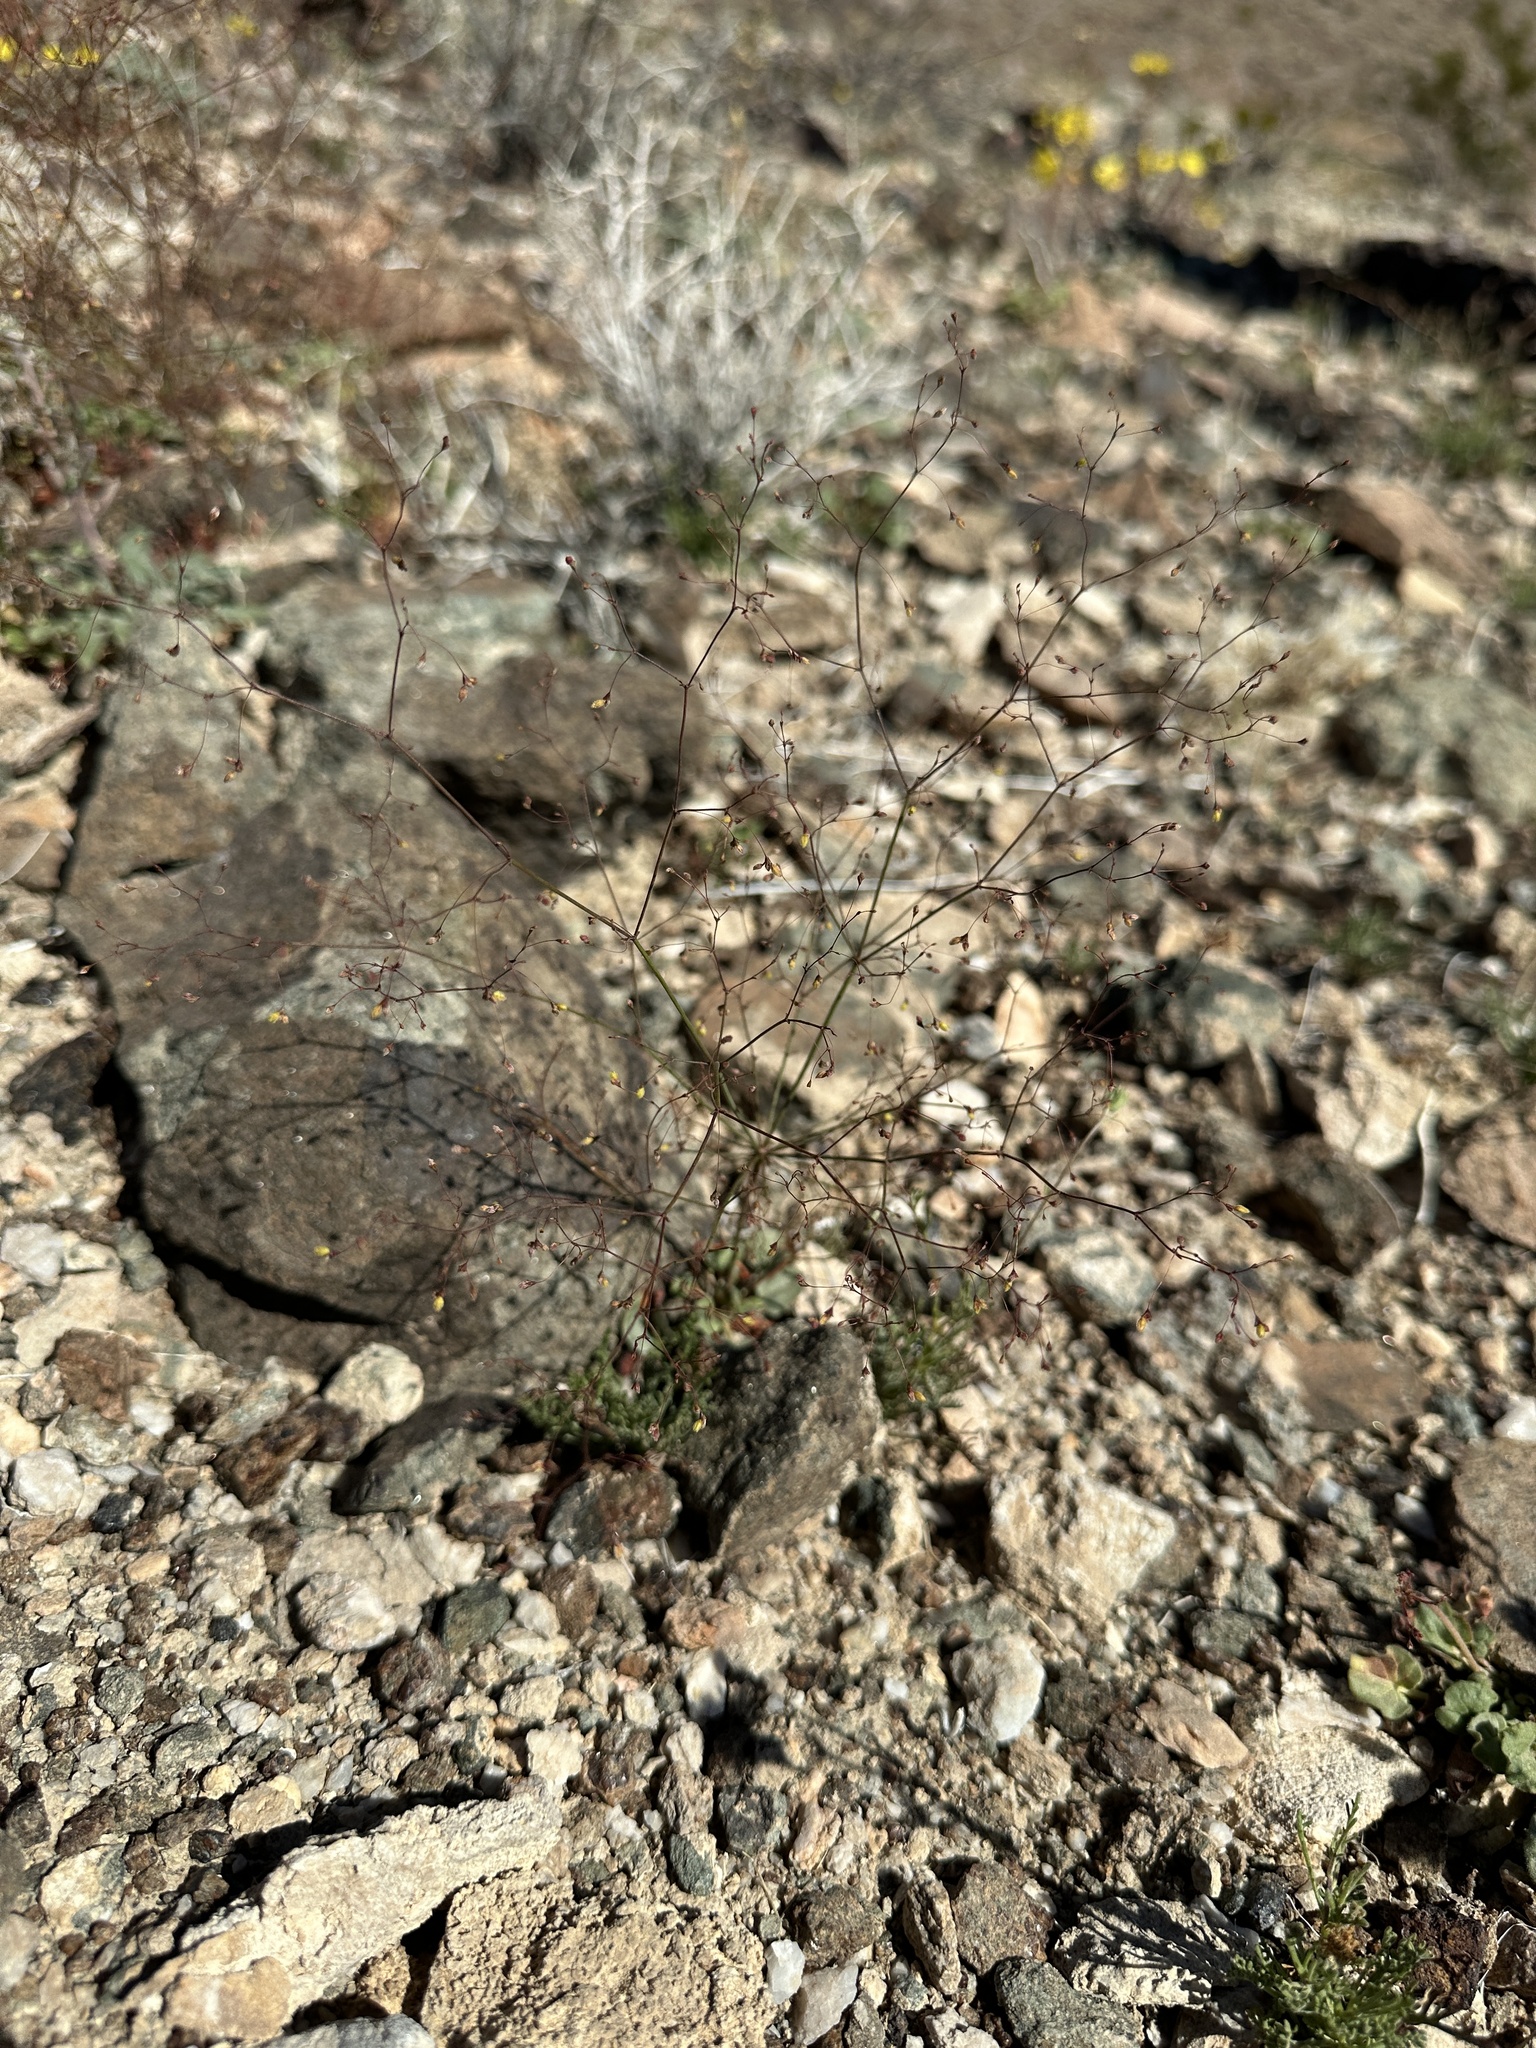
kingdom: Plantae
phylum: Tracheophyta
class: Magnoliopsida
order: Caryophyllales
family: Polygonaceae
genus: Eriogonum
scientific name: Eriogonum contiguum
